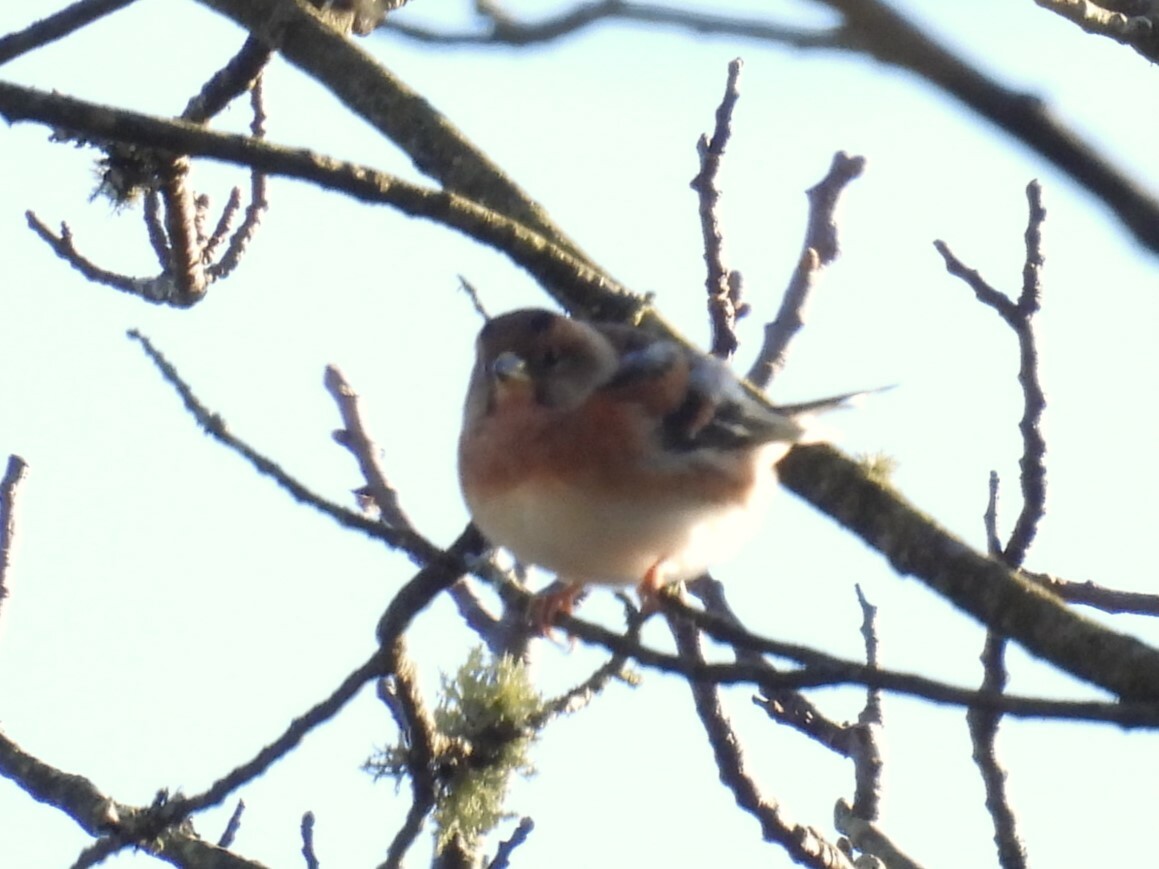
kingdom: Animalia
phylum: Chordata
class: Aves
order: Passeriformes
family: Fringillidae
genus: Fringilla
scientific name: Fringilla montifringilla
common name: Brambling
